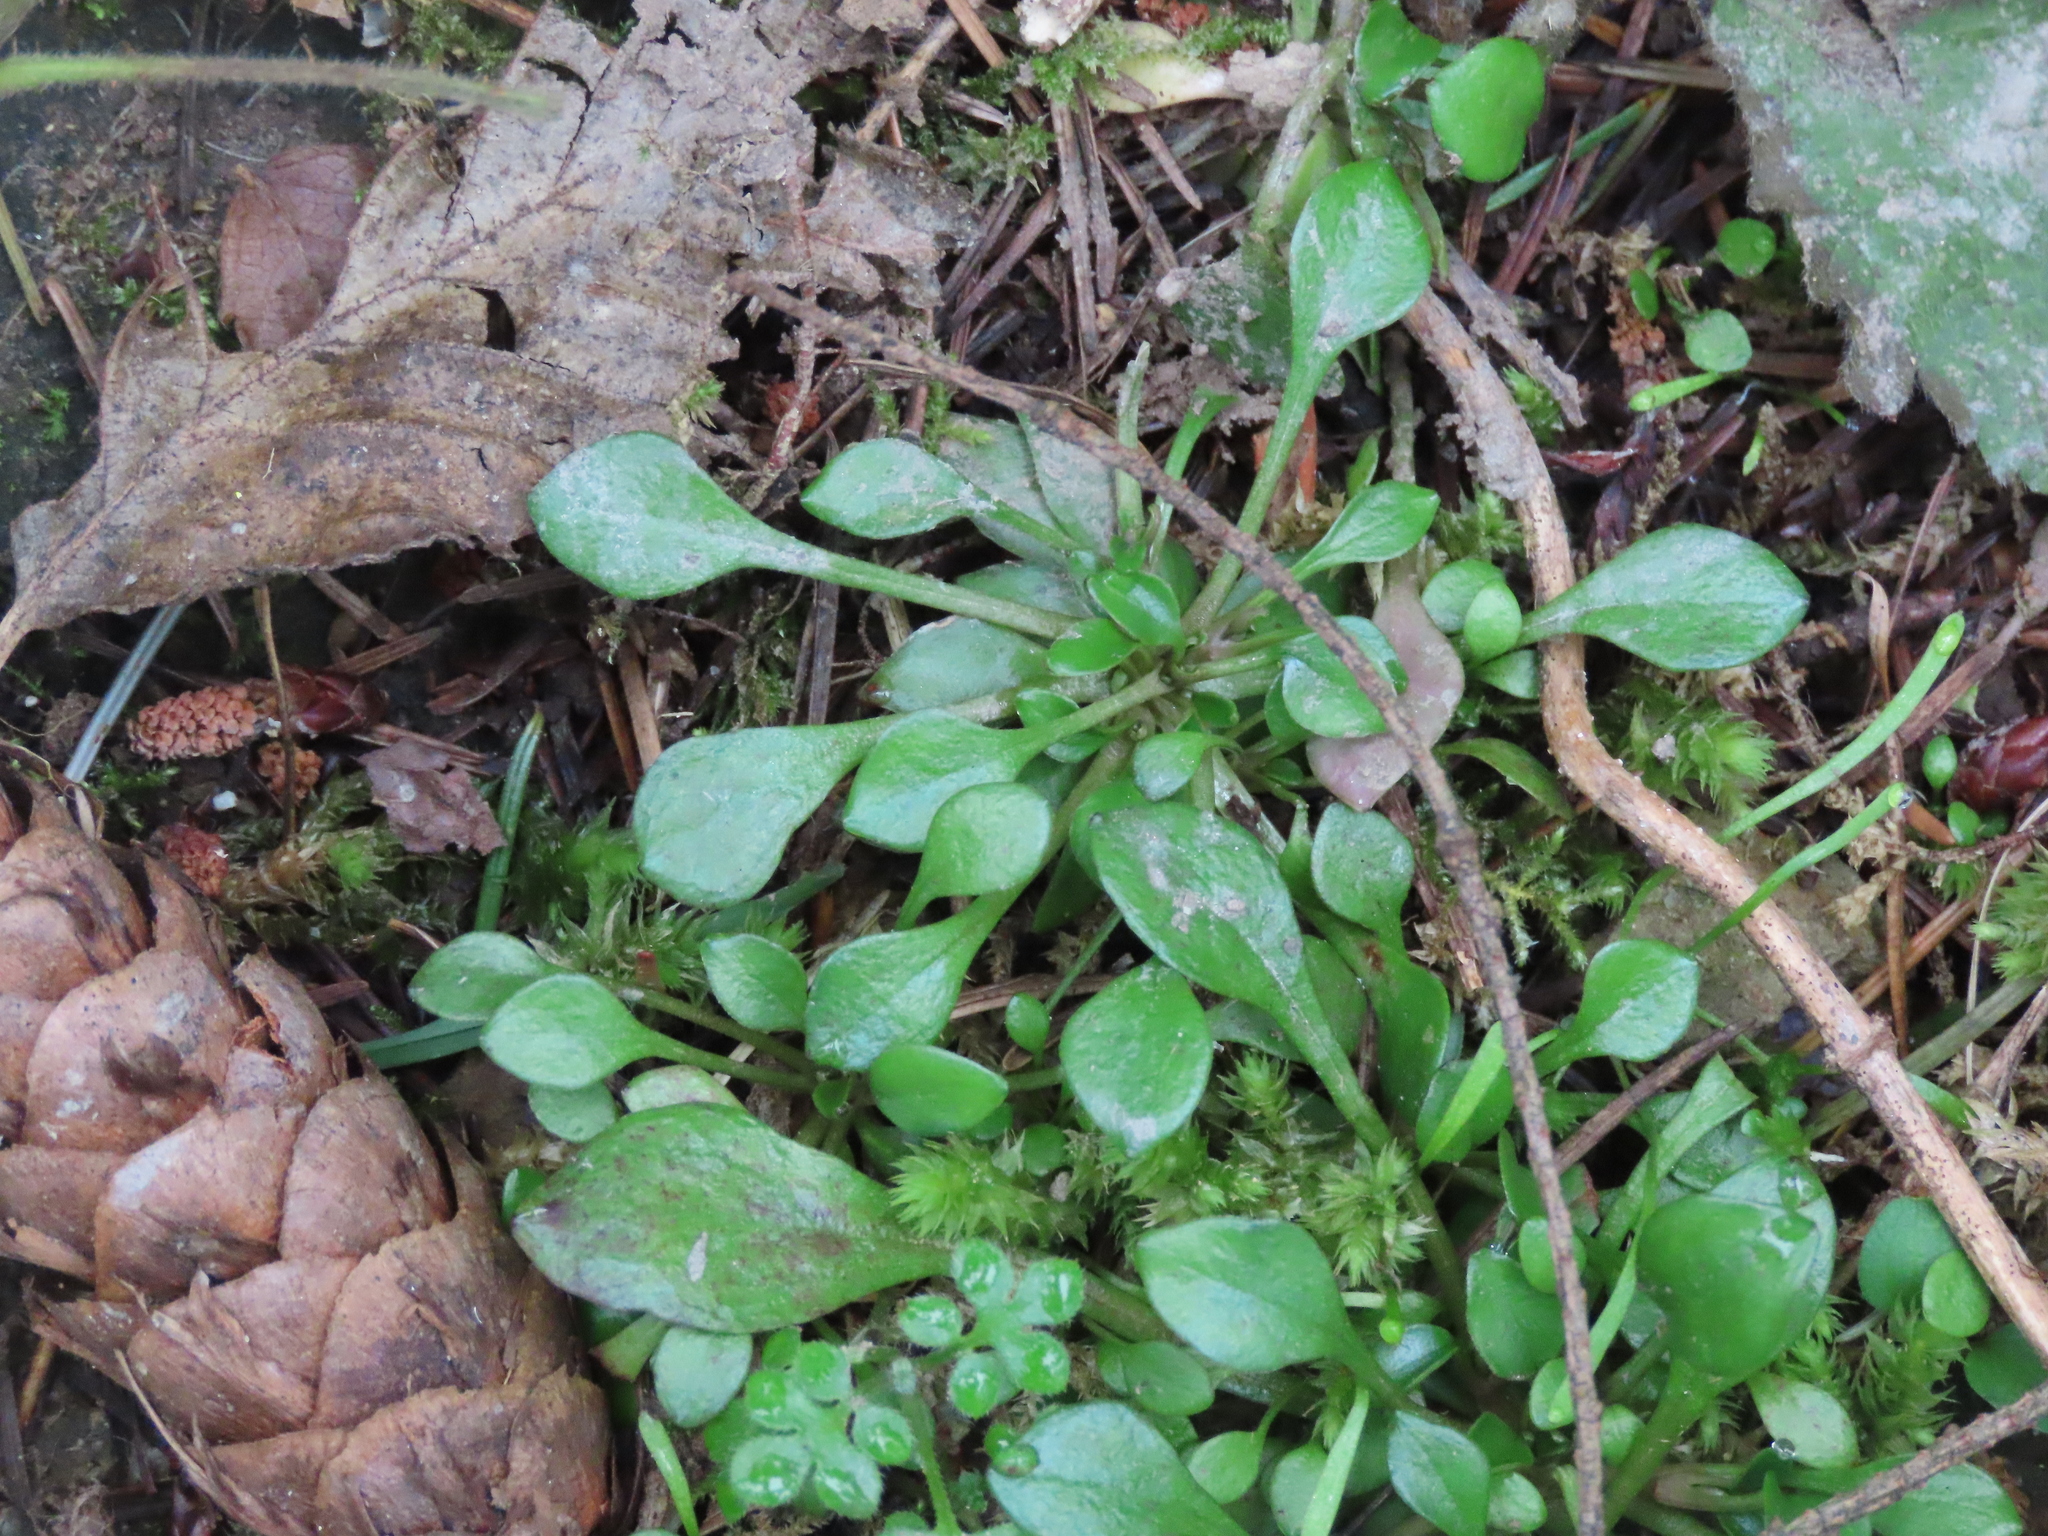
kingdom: Plantae
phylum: Tracheophyta
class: Magnoliopsida
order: Caryophyllales
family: Montiaceae
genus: Montia
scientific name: Montia parvifolia
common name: Small-leaved blinks
